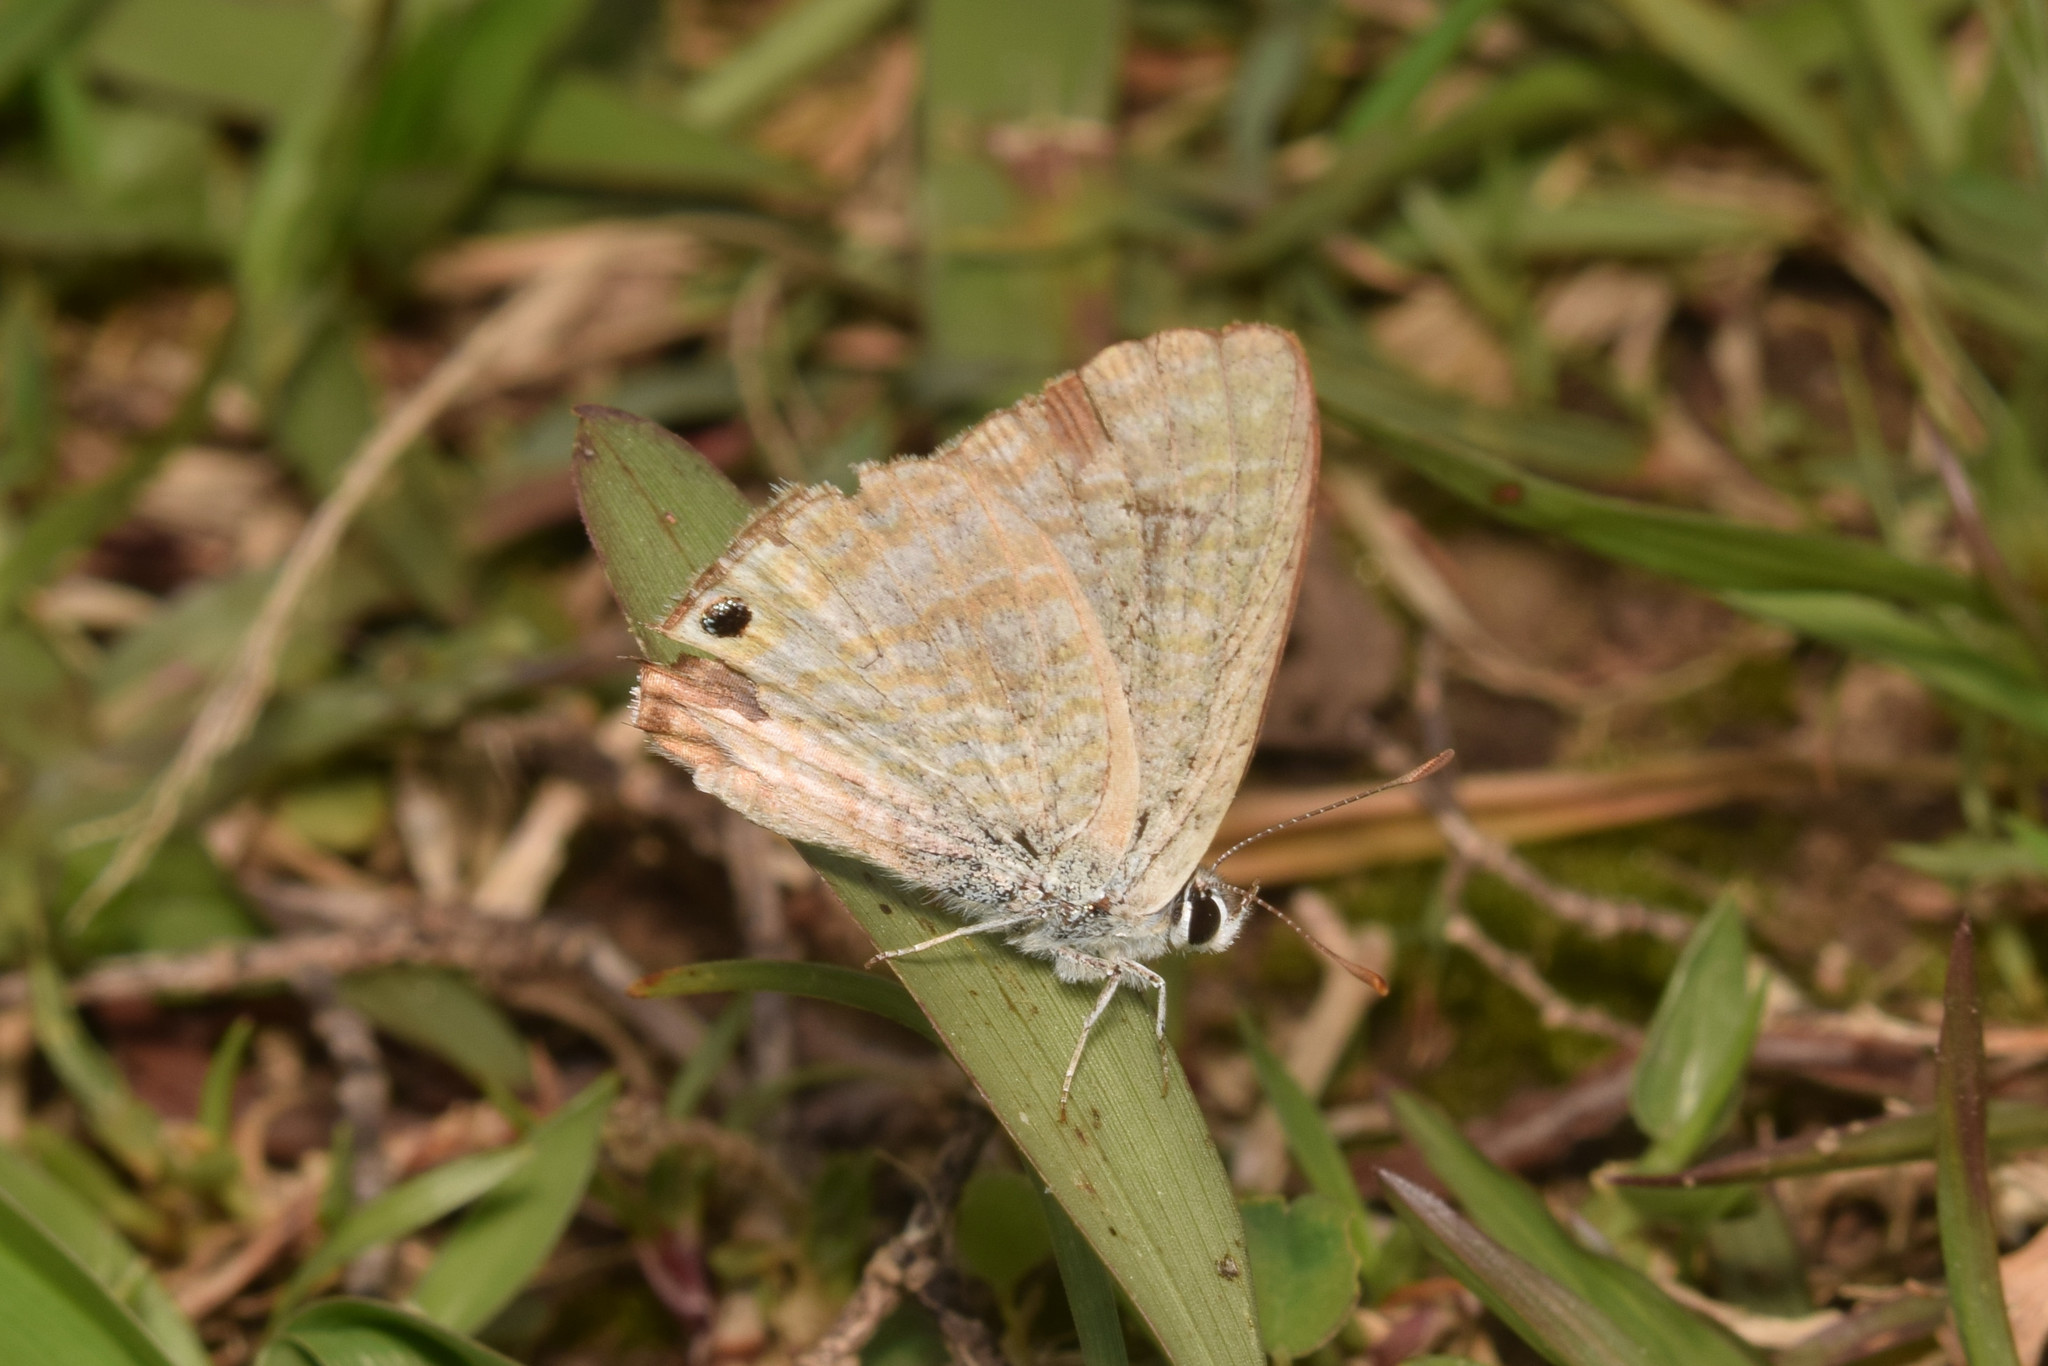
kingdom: Animalia
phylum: Arthropoda
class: Insecta
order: Lepidoptera
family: Lycaenidae
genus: Lampides
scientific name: Lampides boeticus
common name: Long-tailed blue
